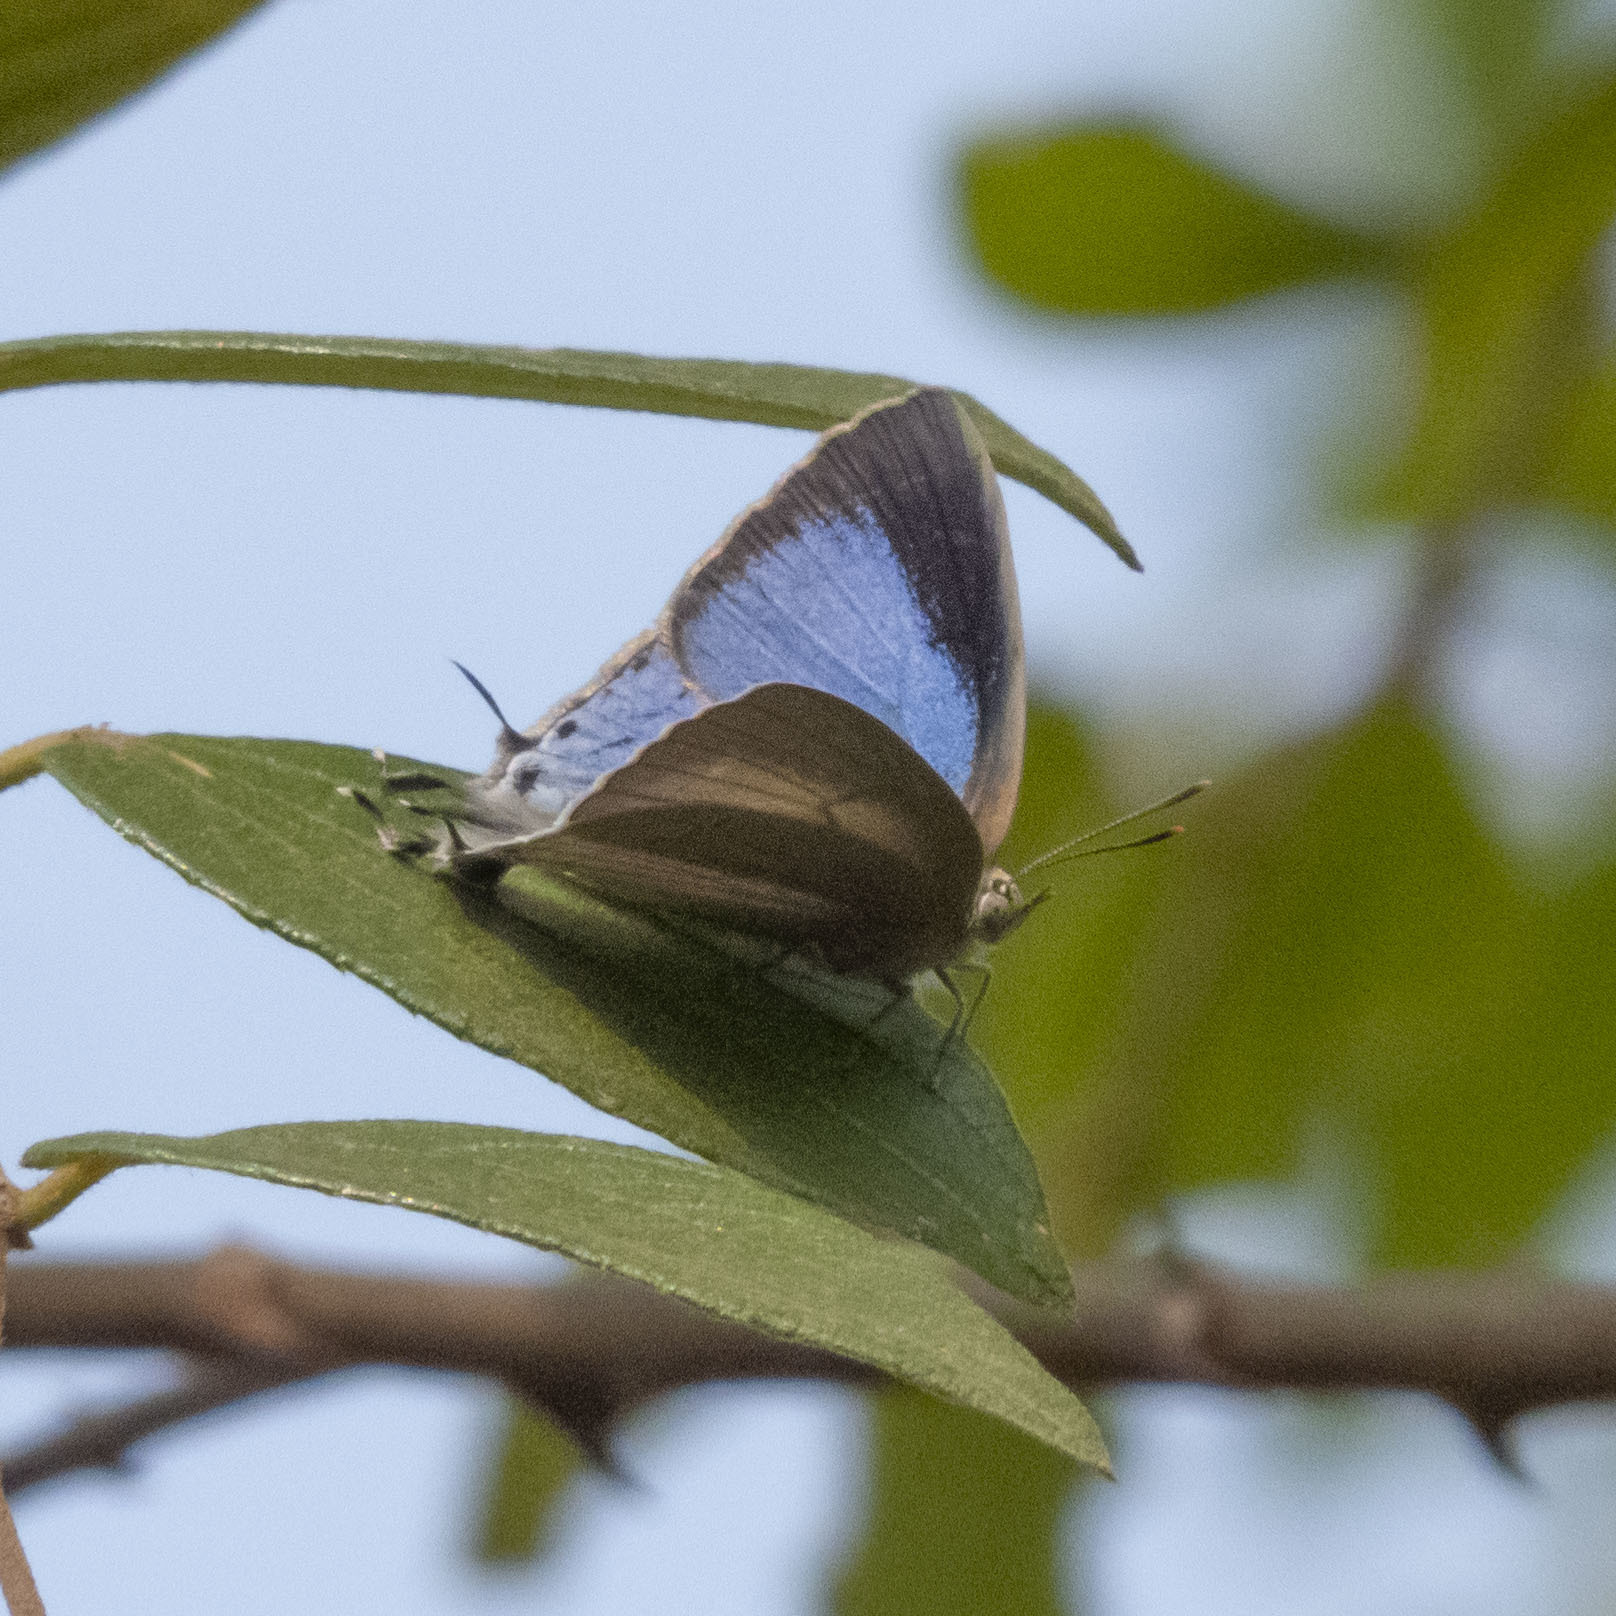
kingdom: Animalia
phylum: Arthropoda
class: Insecta
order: Lepidoptera
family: Lycaenidae
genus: Tajuria
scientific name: Tajuria jehana
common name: Plains blue royal
